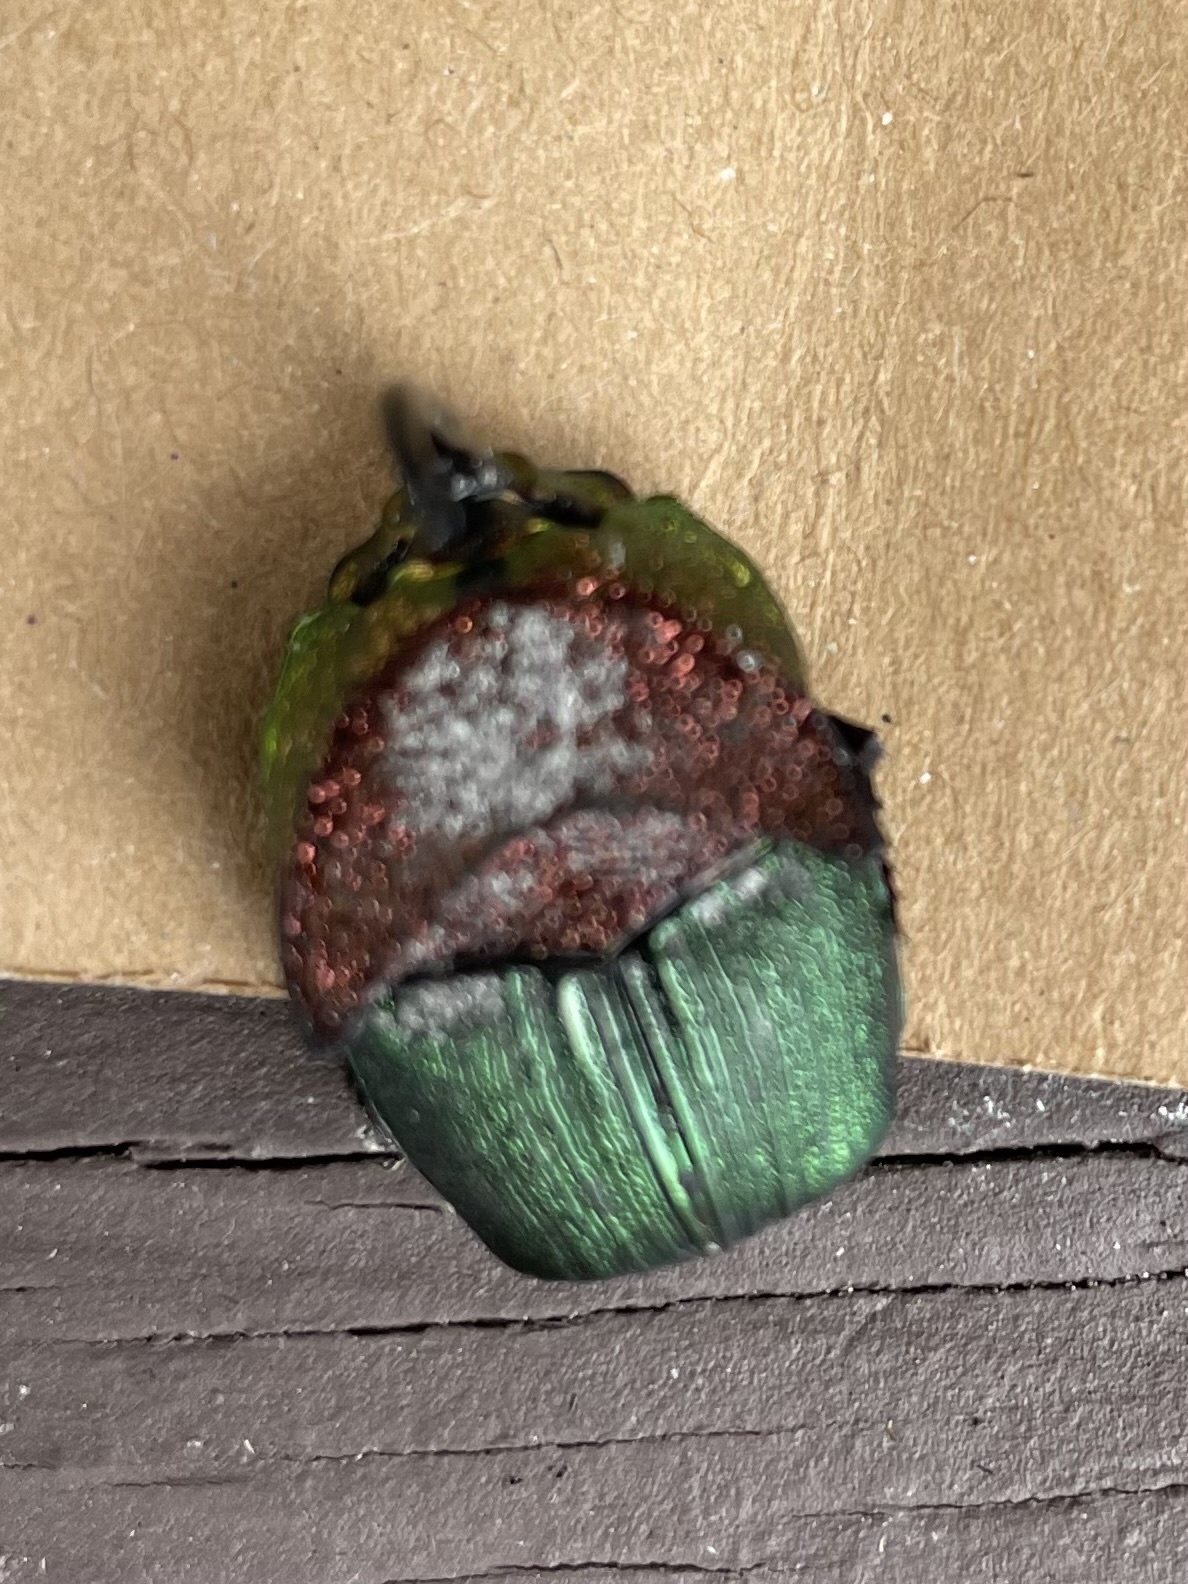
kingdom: Animalia
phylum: Arthropoda
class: Insecta
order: Coleoptera
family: Scarabaeidae
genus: Phanaeus
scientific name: Phanaeus vindex
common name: Rainbow scarab
